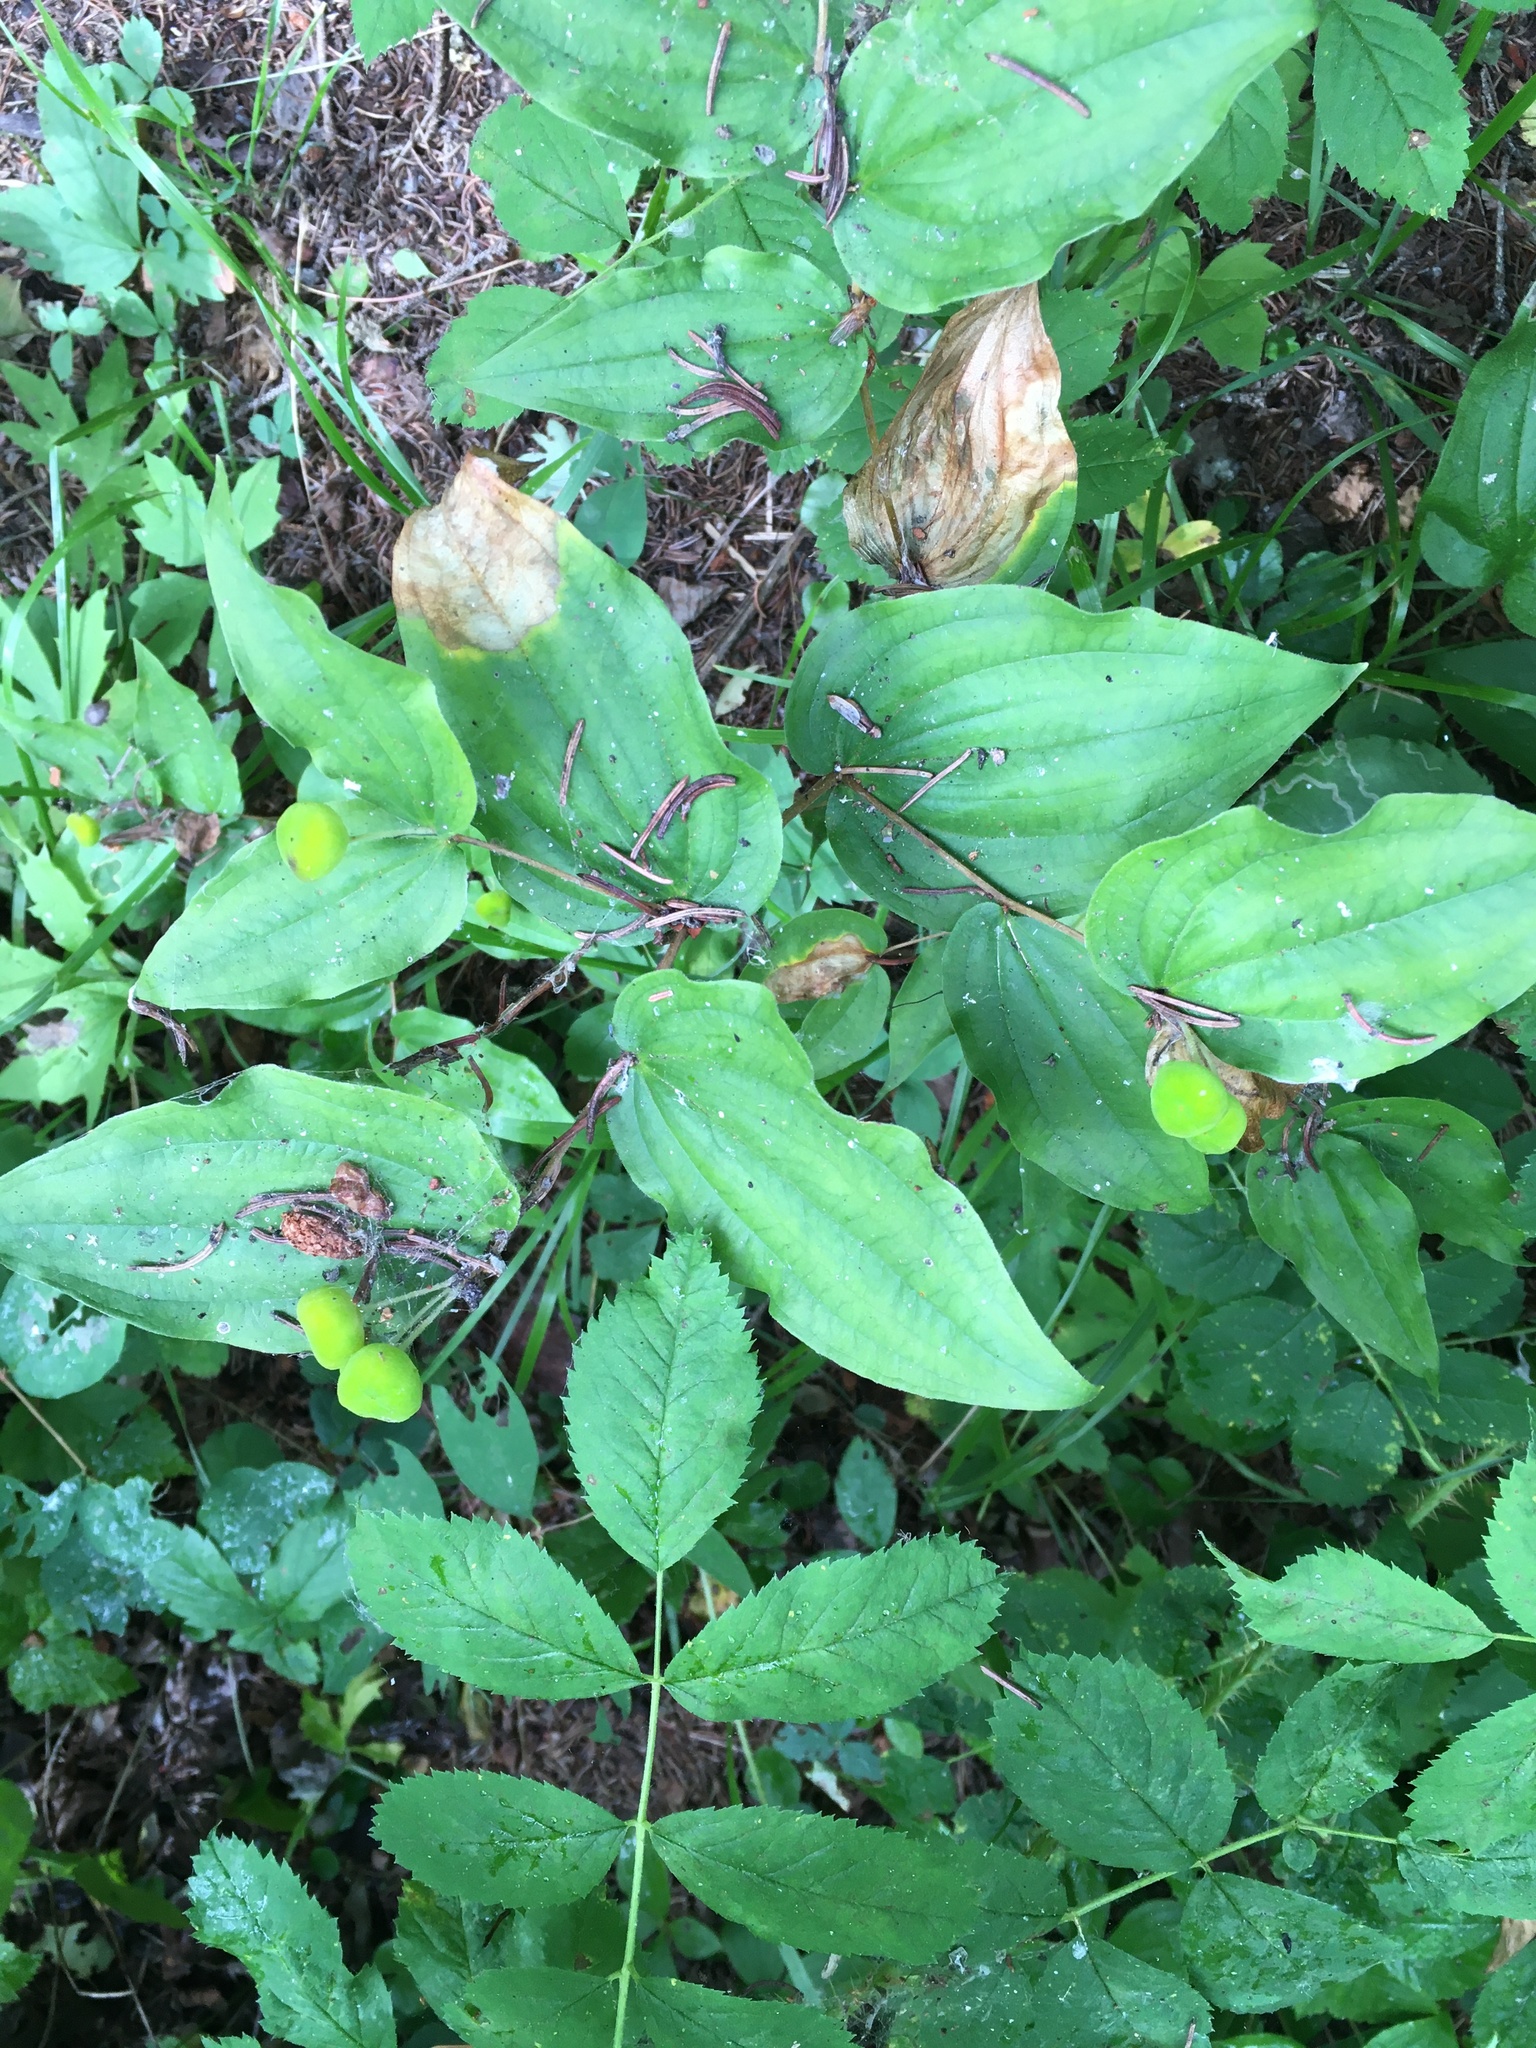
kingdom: Plantae
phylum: Tracheophyta
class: Liliopsida
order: Liliales
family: Liliaceae
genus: Prosartes
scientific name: Prosartes trachycarpa
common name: Rough-fruit fairy-bells
